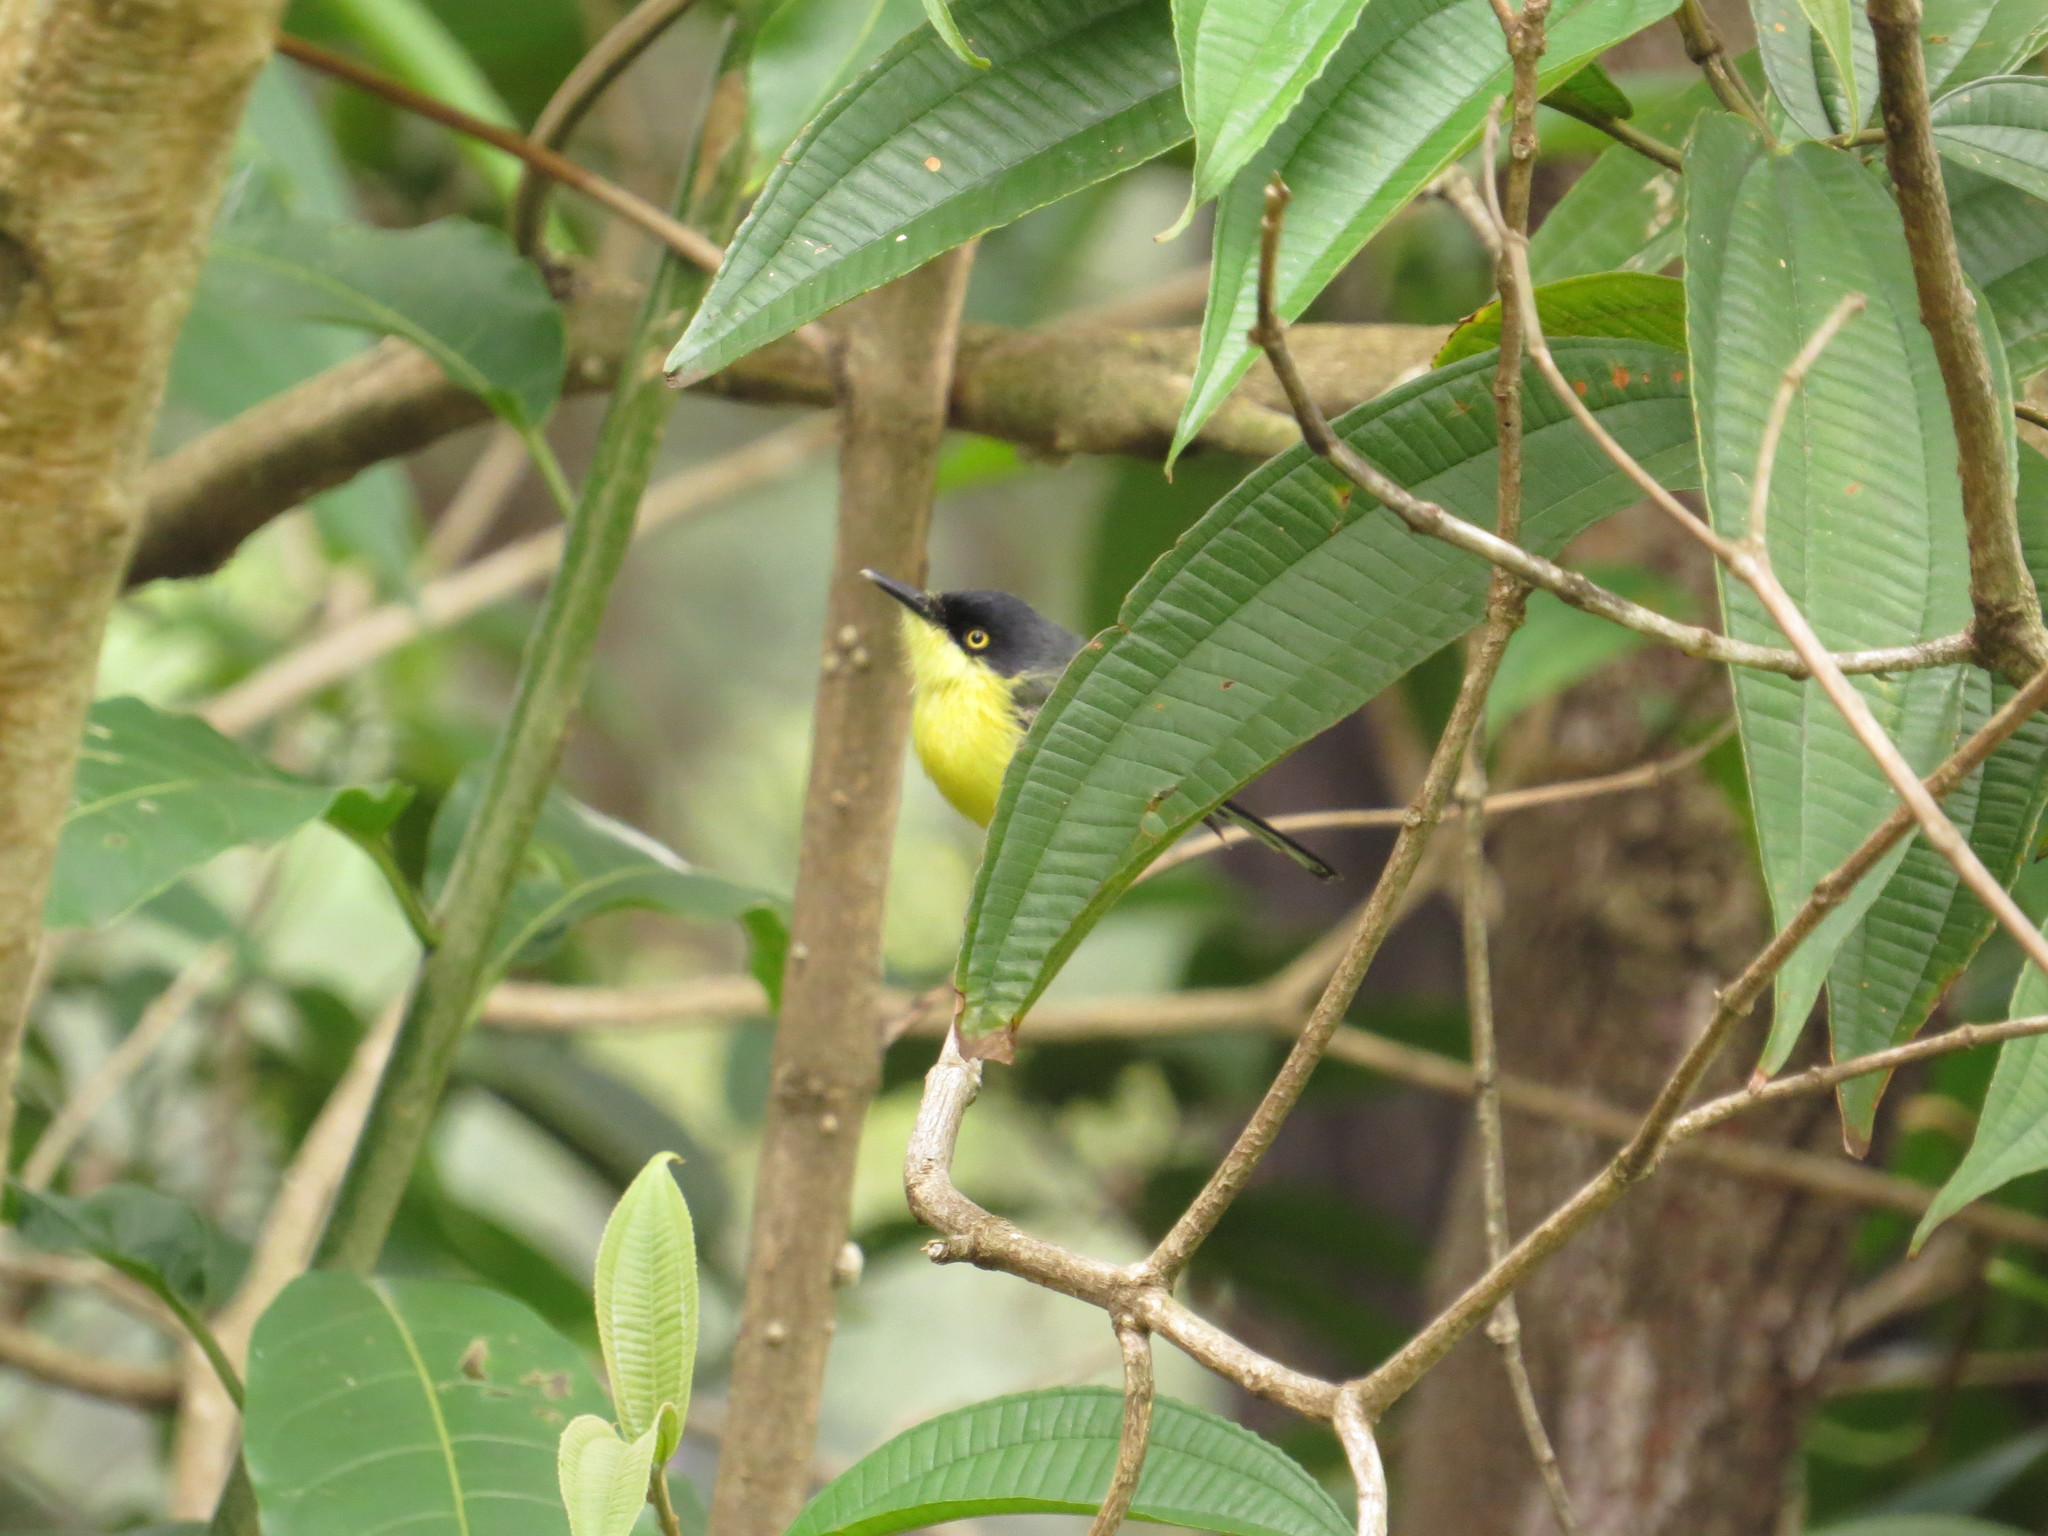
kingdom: Animalia
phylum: Chordata
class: Aves
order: Passeriformes
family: Tyrannidae
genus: Todirostrum
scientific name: Todirostrum cinereum
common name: Common tody-flycatcher
